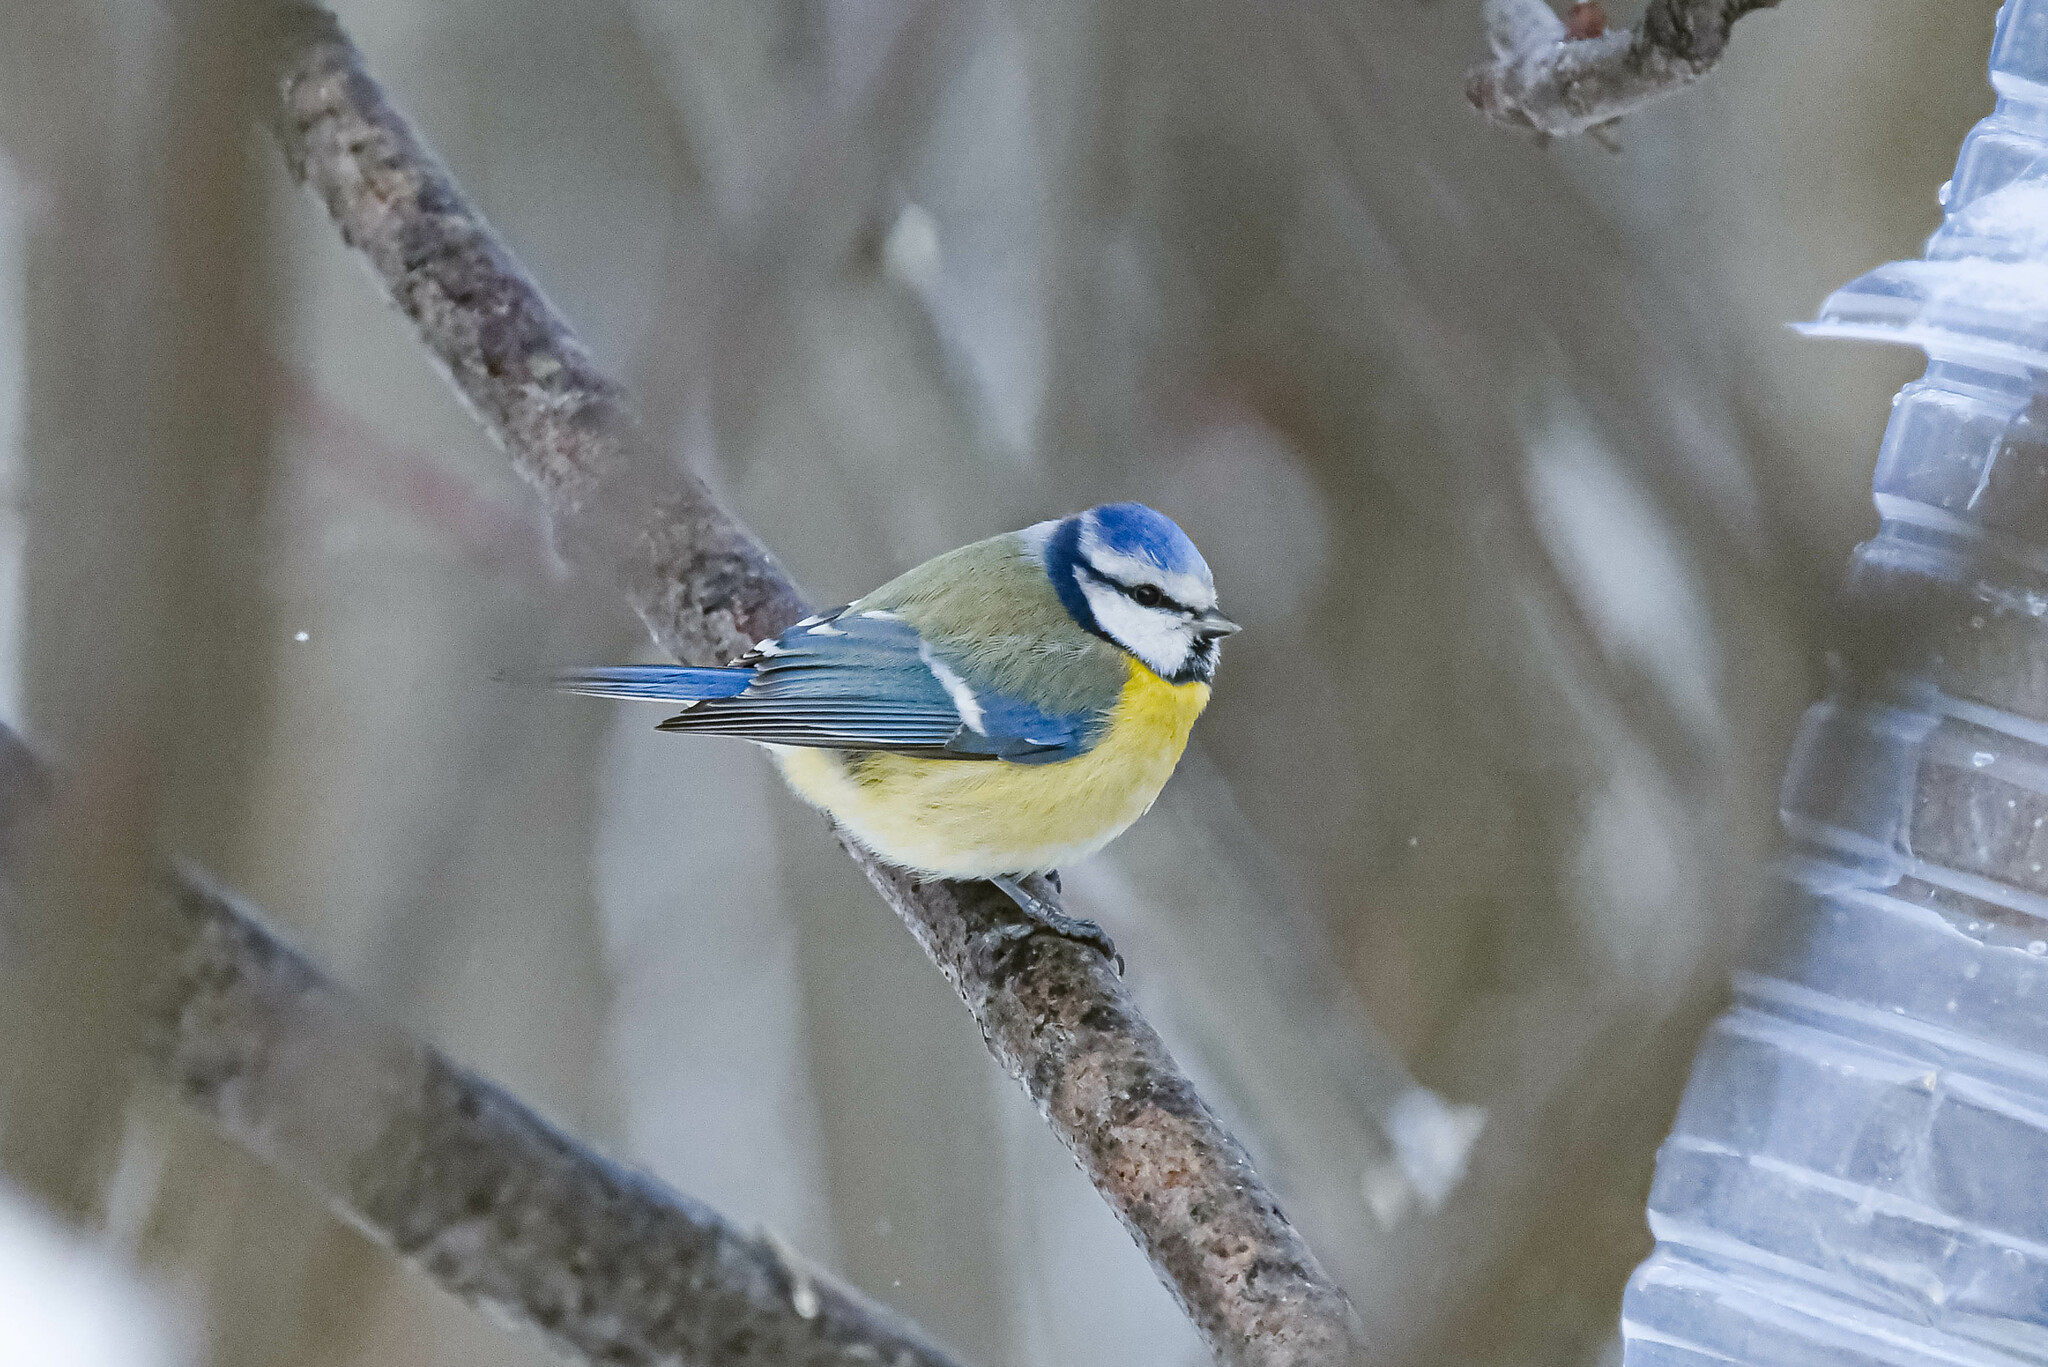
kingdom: Animalia
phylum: Chordata
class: Aves
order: Passeriformes
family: Paridae
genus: Cyanistes
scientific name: Cyanistes caeruleus
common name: Eurasian blue tit
